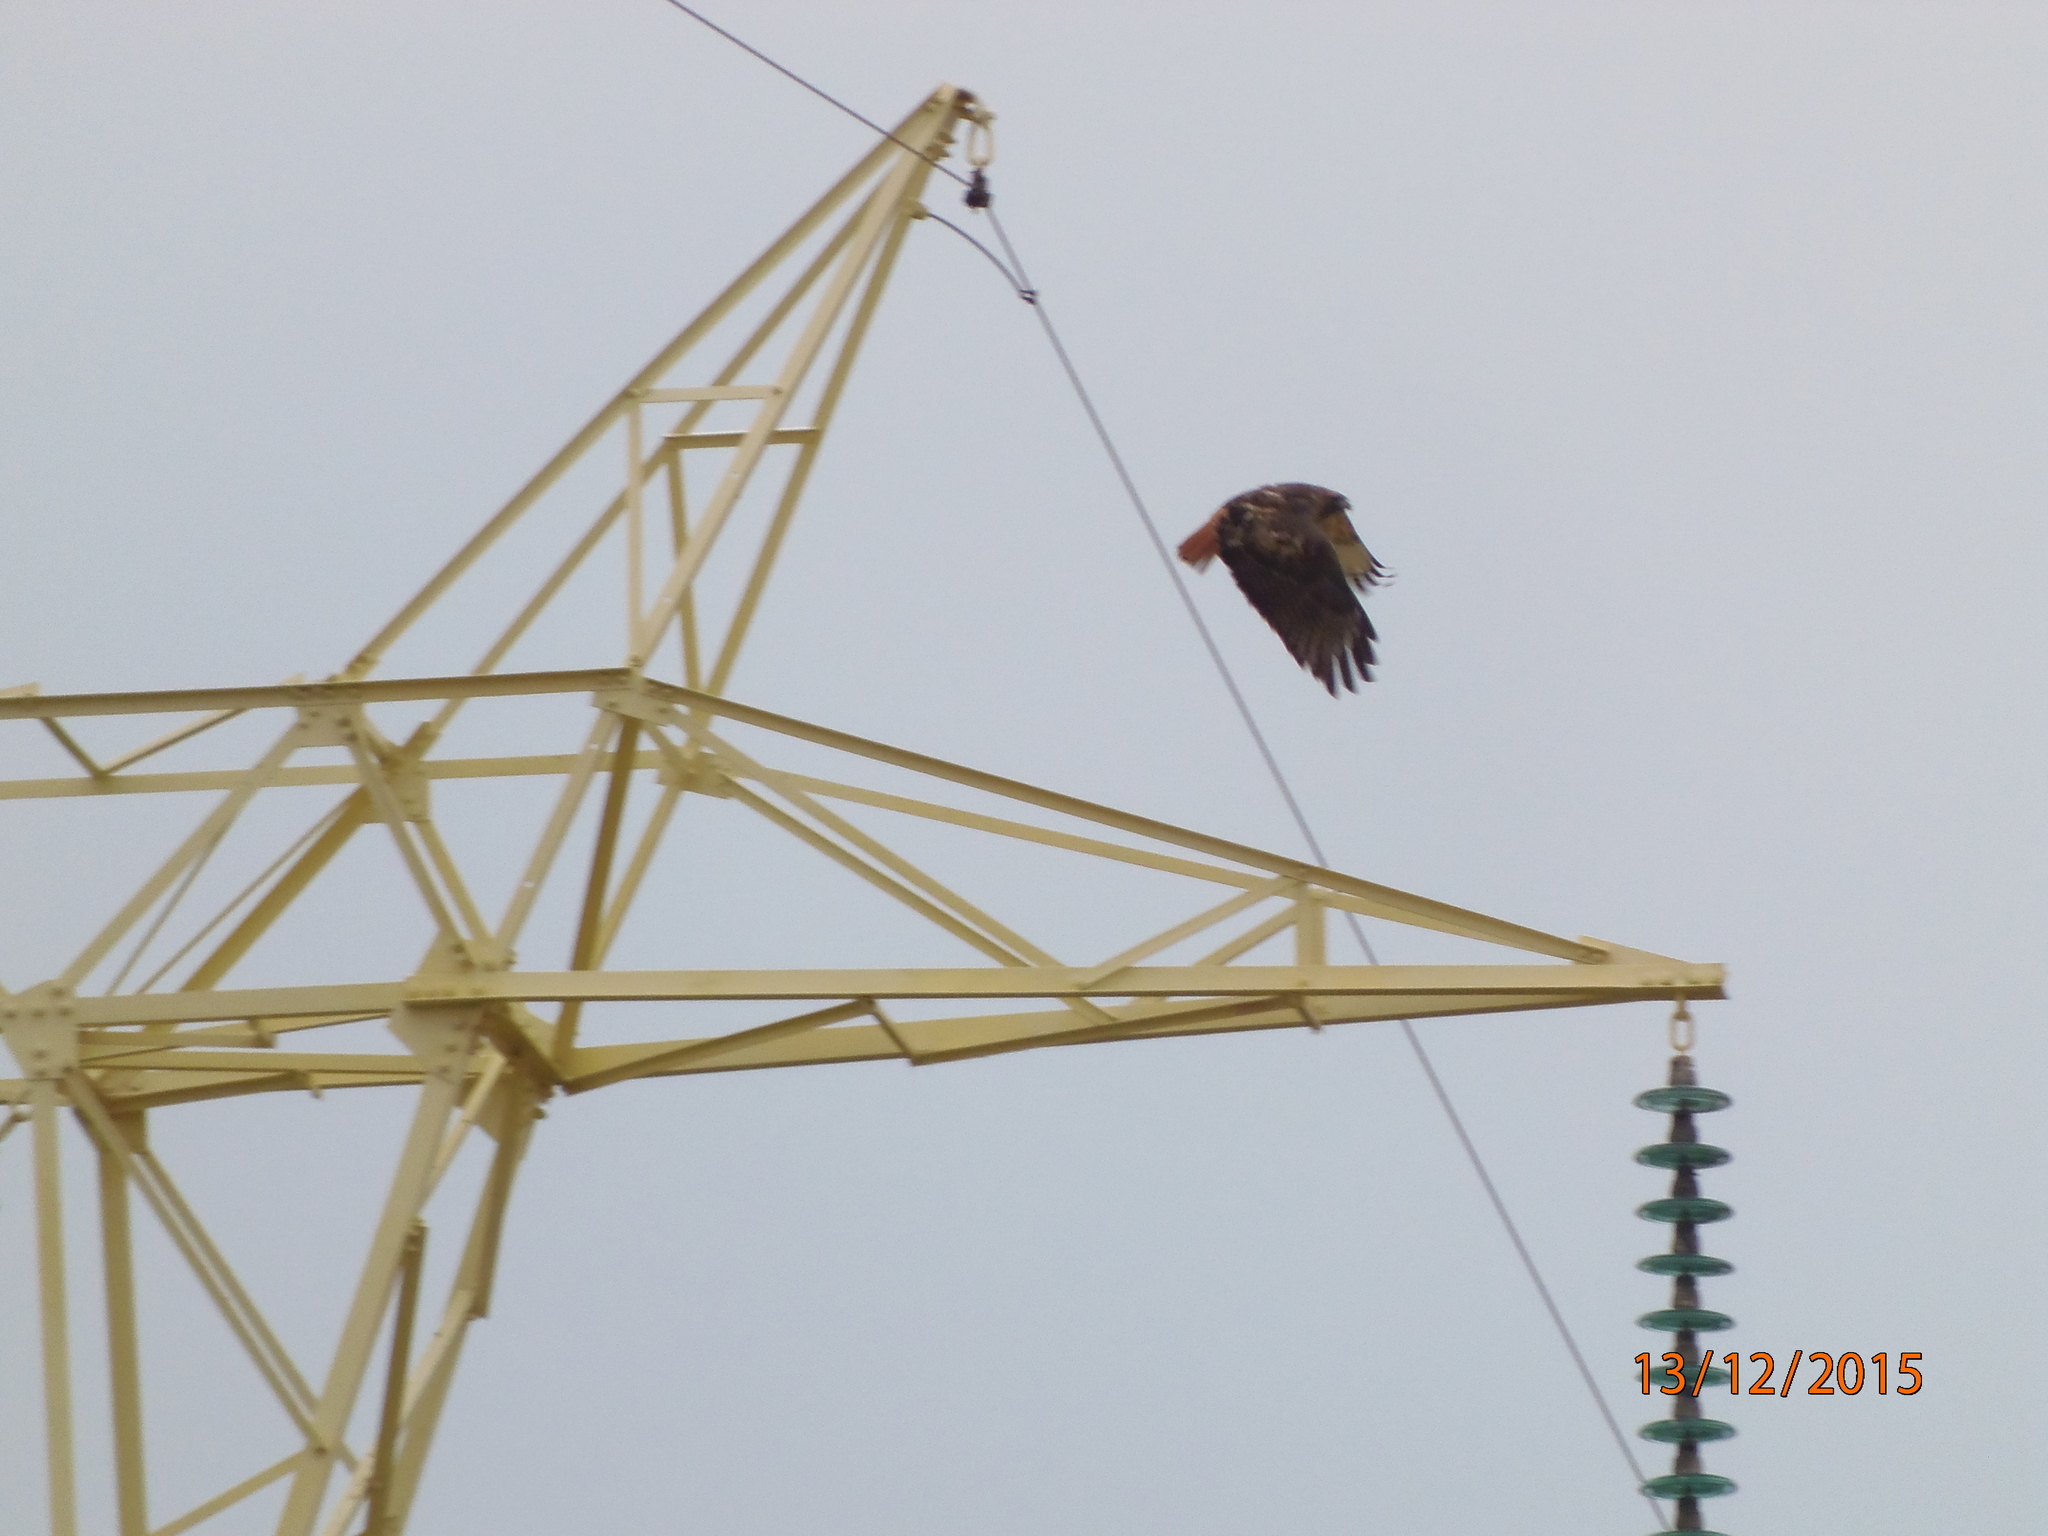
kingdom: Animalia
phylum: Chordata
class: Aves
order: Accipitriformes
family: Accipitridae
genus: Buteo
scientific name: Buteo jamaicensis
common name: Red-tailed hawk
